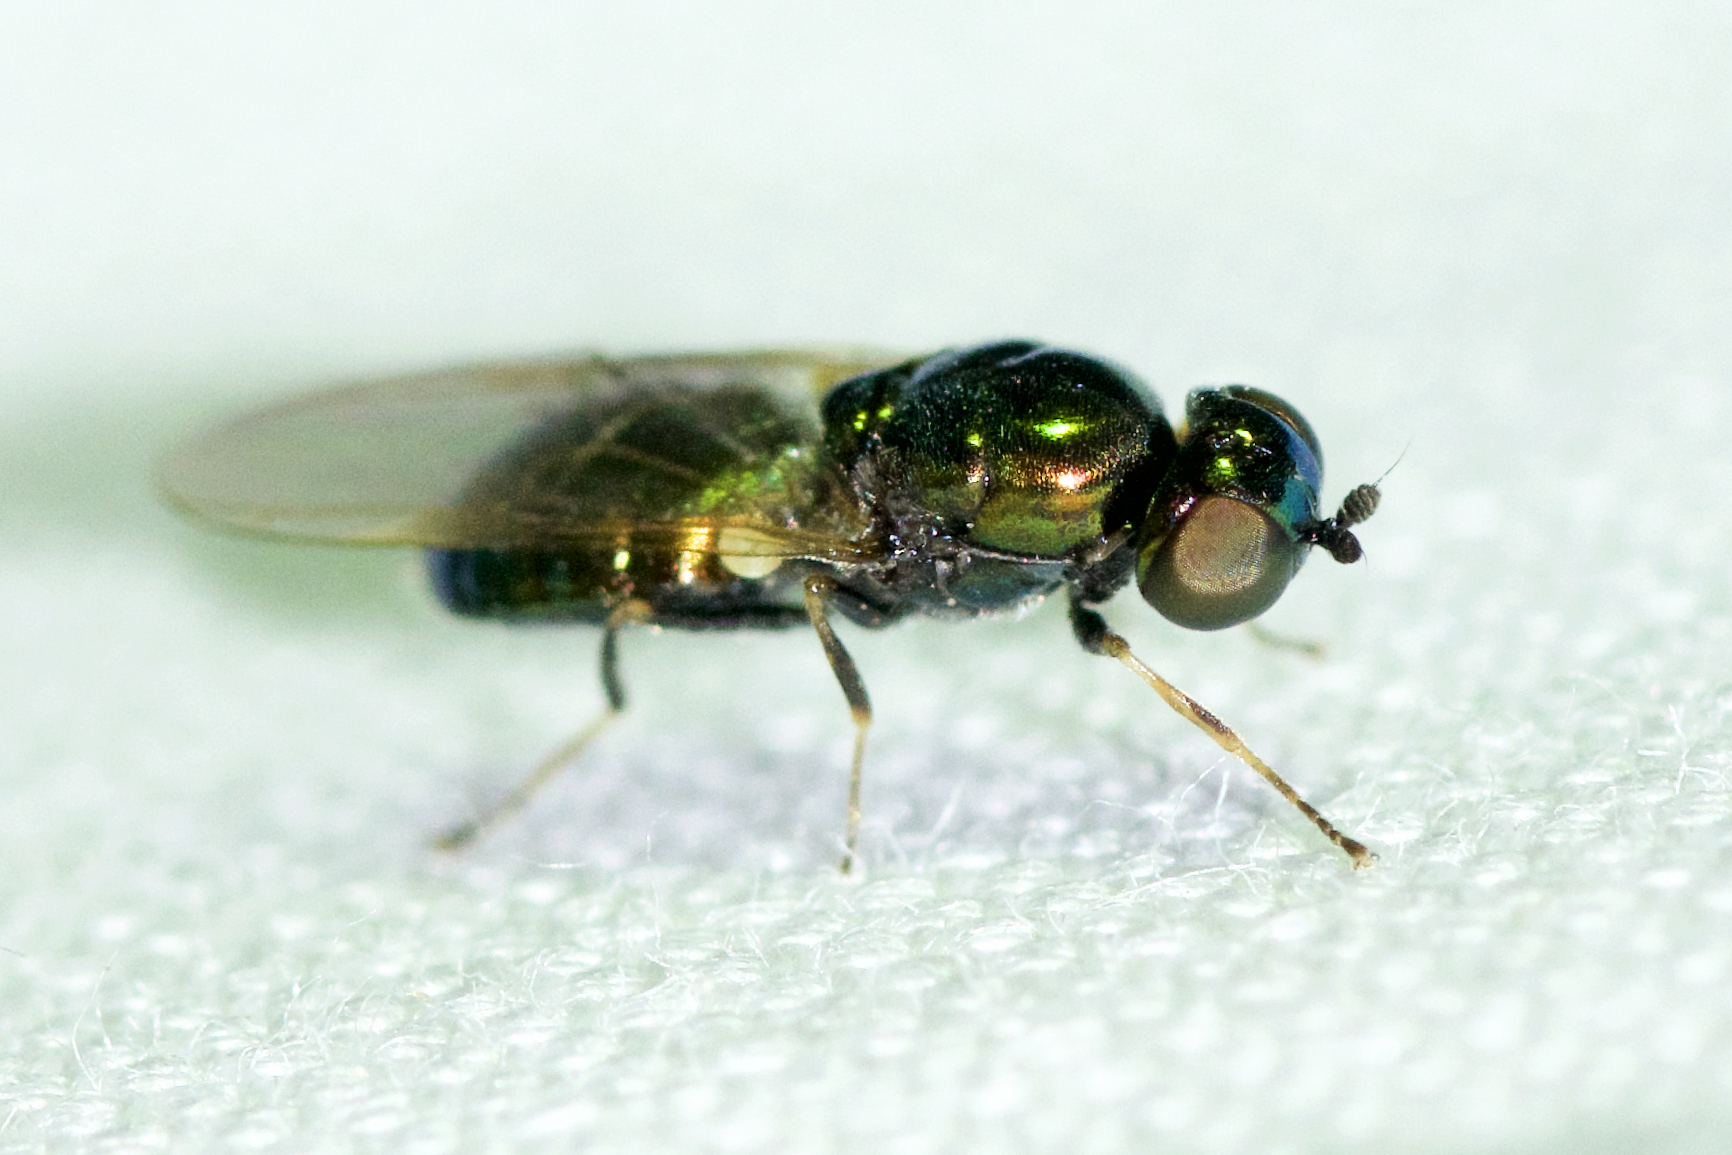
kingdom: Animalia
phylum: Arthropoda
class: Insecta
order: Diptera
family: Stratiomyidae
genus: Microchrysa
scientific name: Microchrysa polita
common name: Black-horned gem
